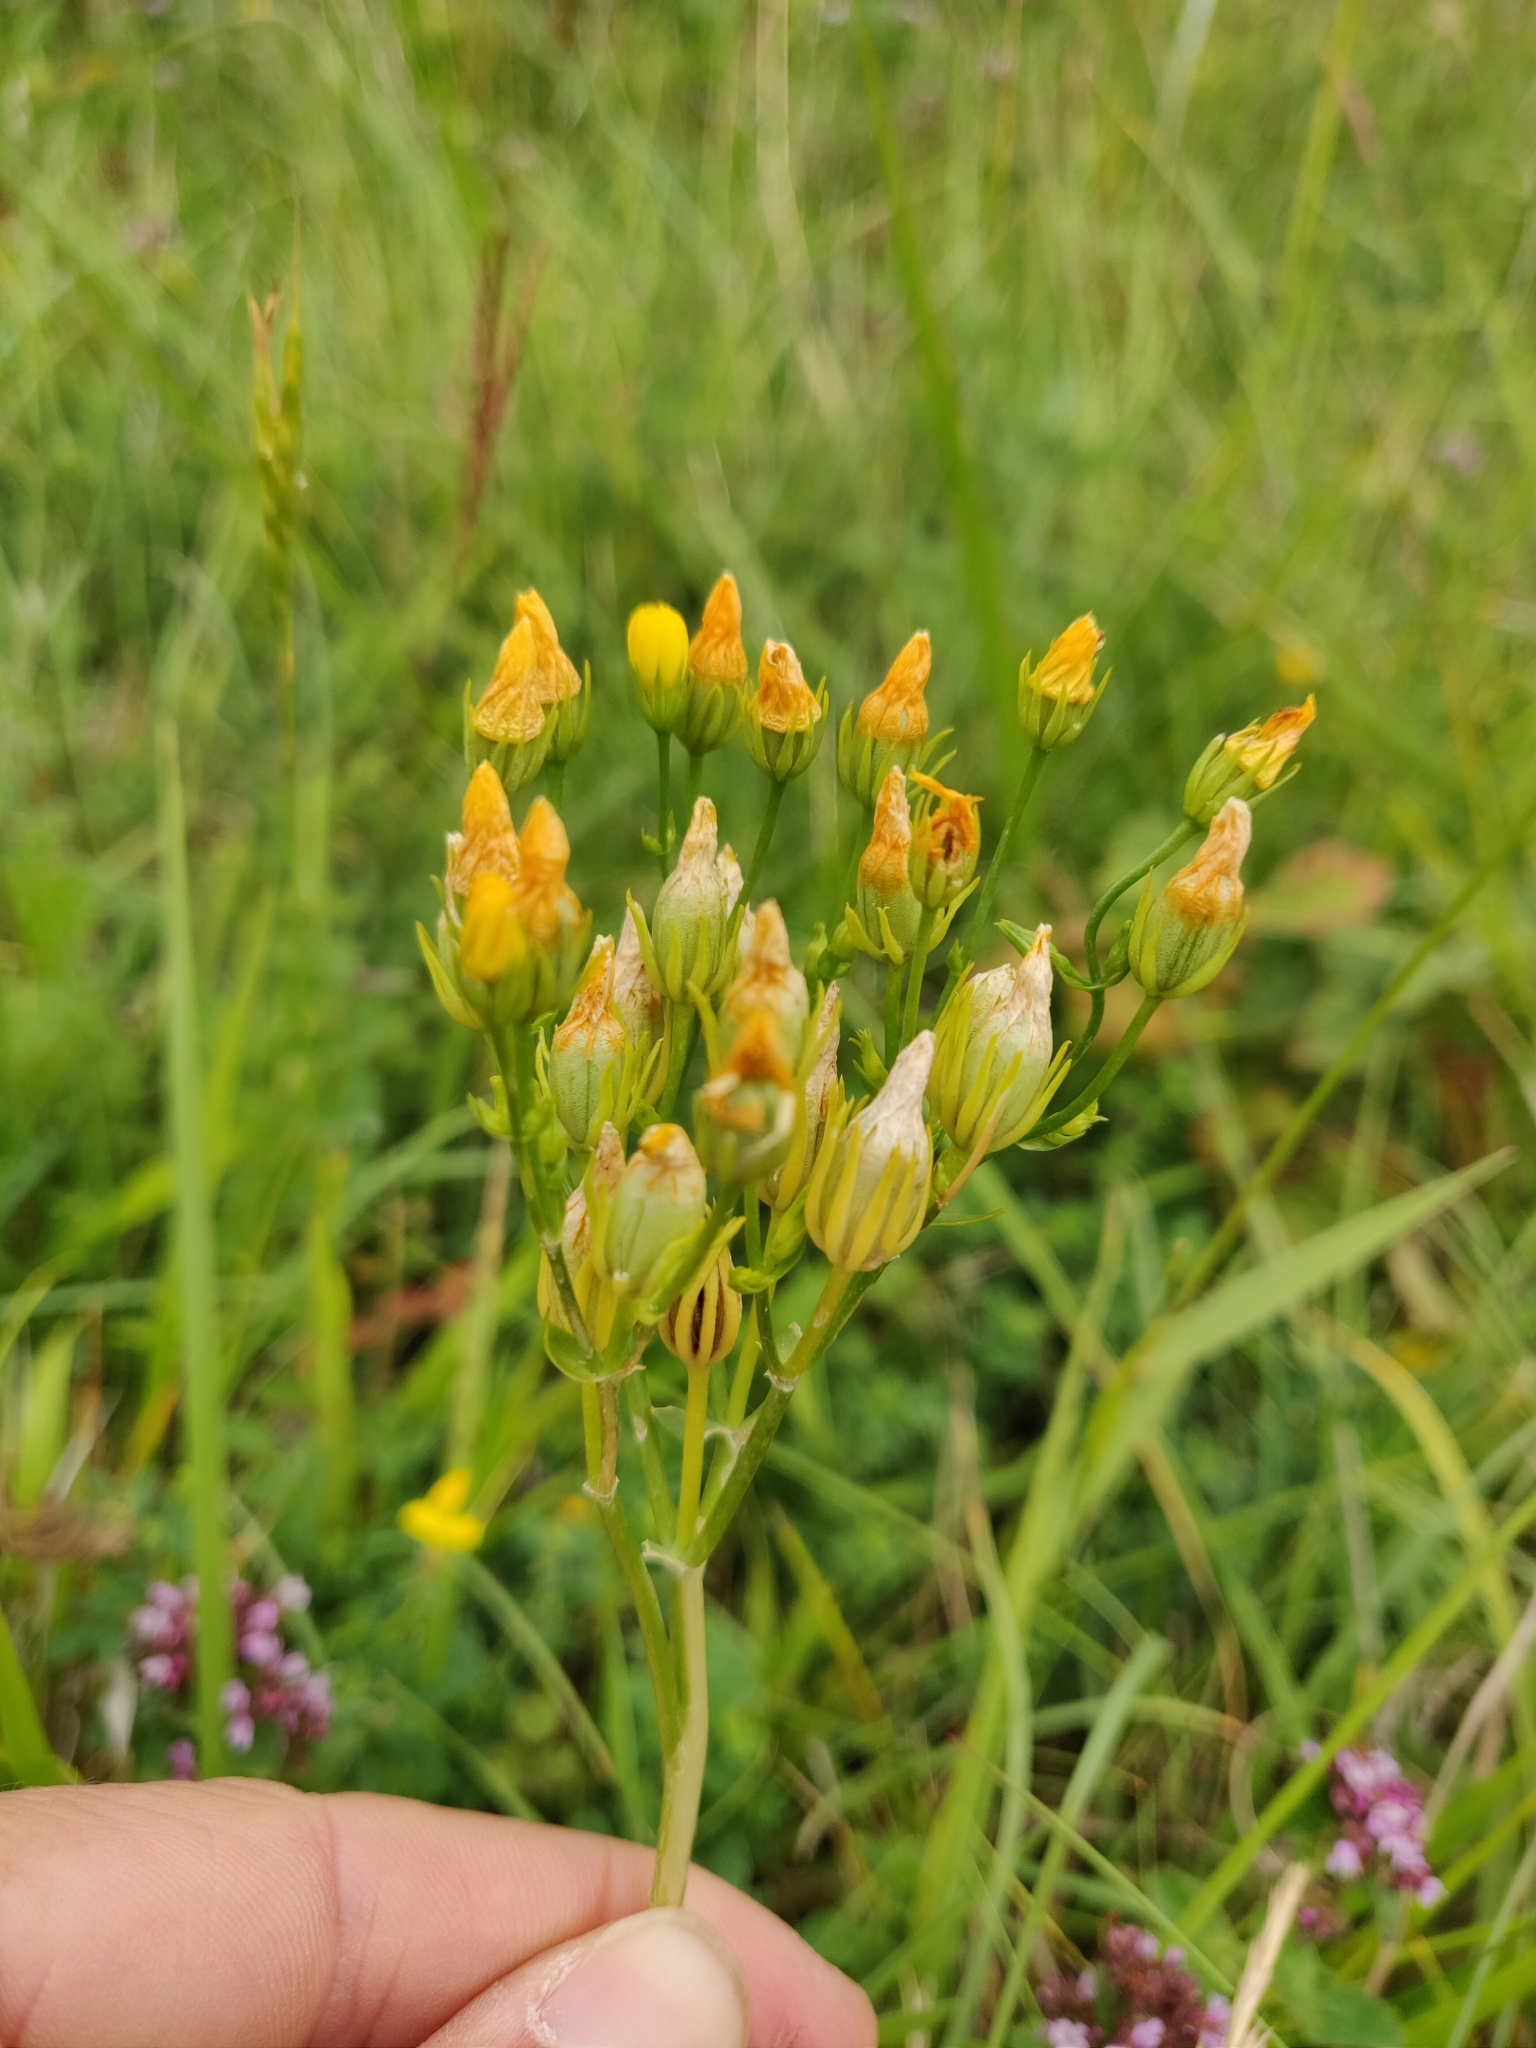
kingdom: Plantae
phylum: Tracheophyta
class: Magnoliopsida
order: Gentianales
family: Gentianaceae
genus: Blackstonia
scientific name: Blackstonia perfoliata
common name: Yellow-wort
